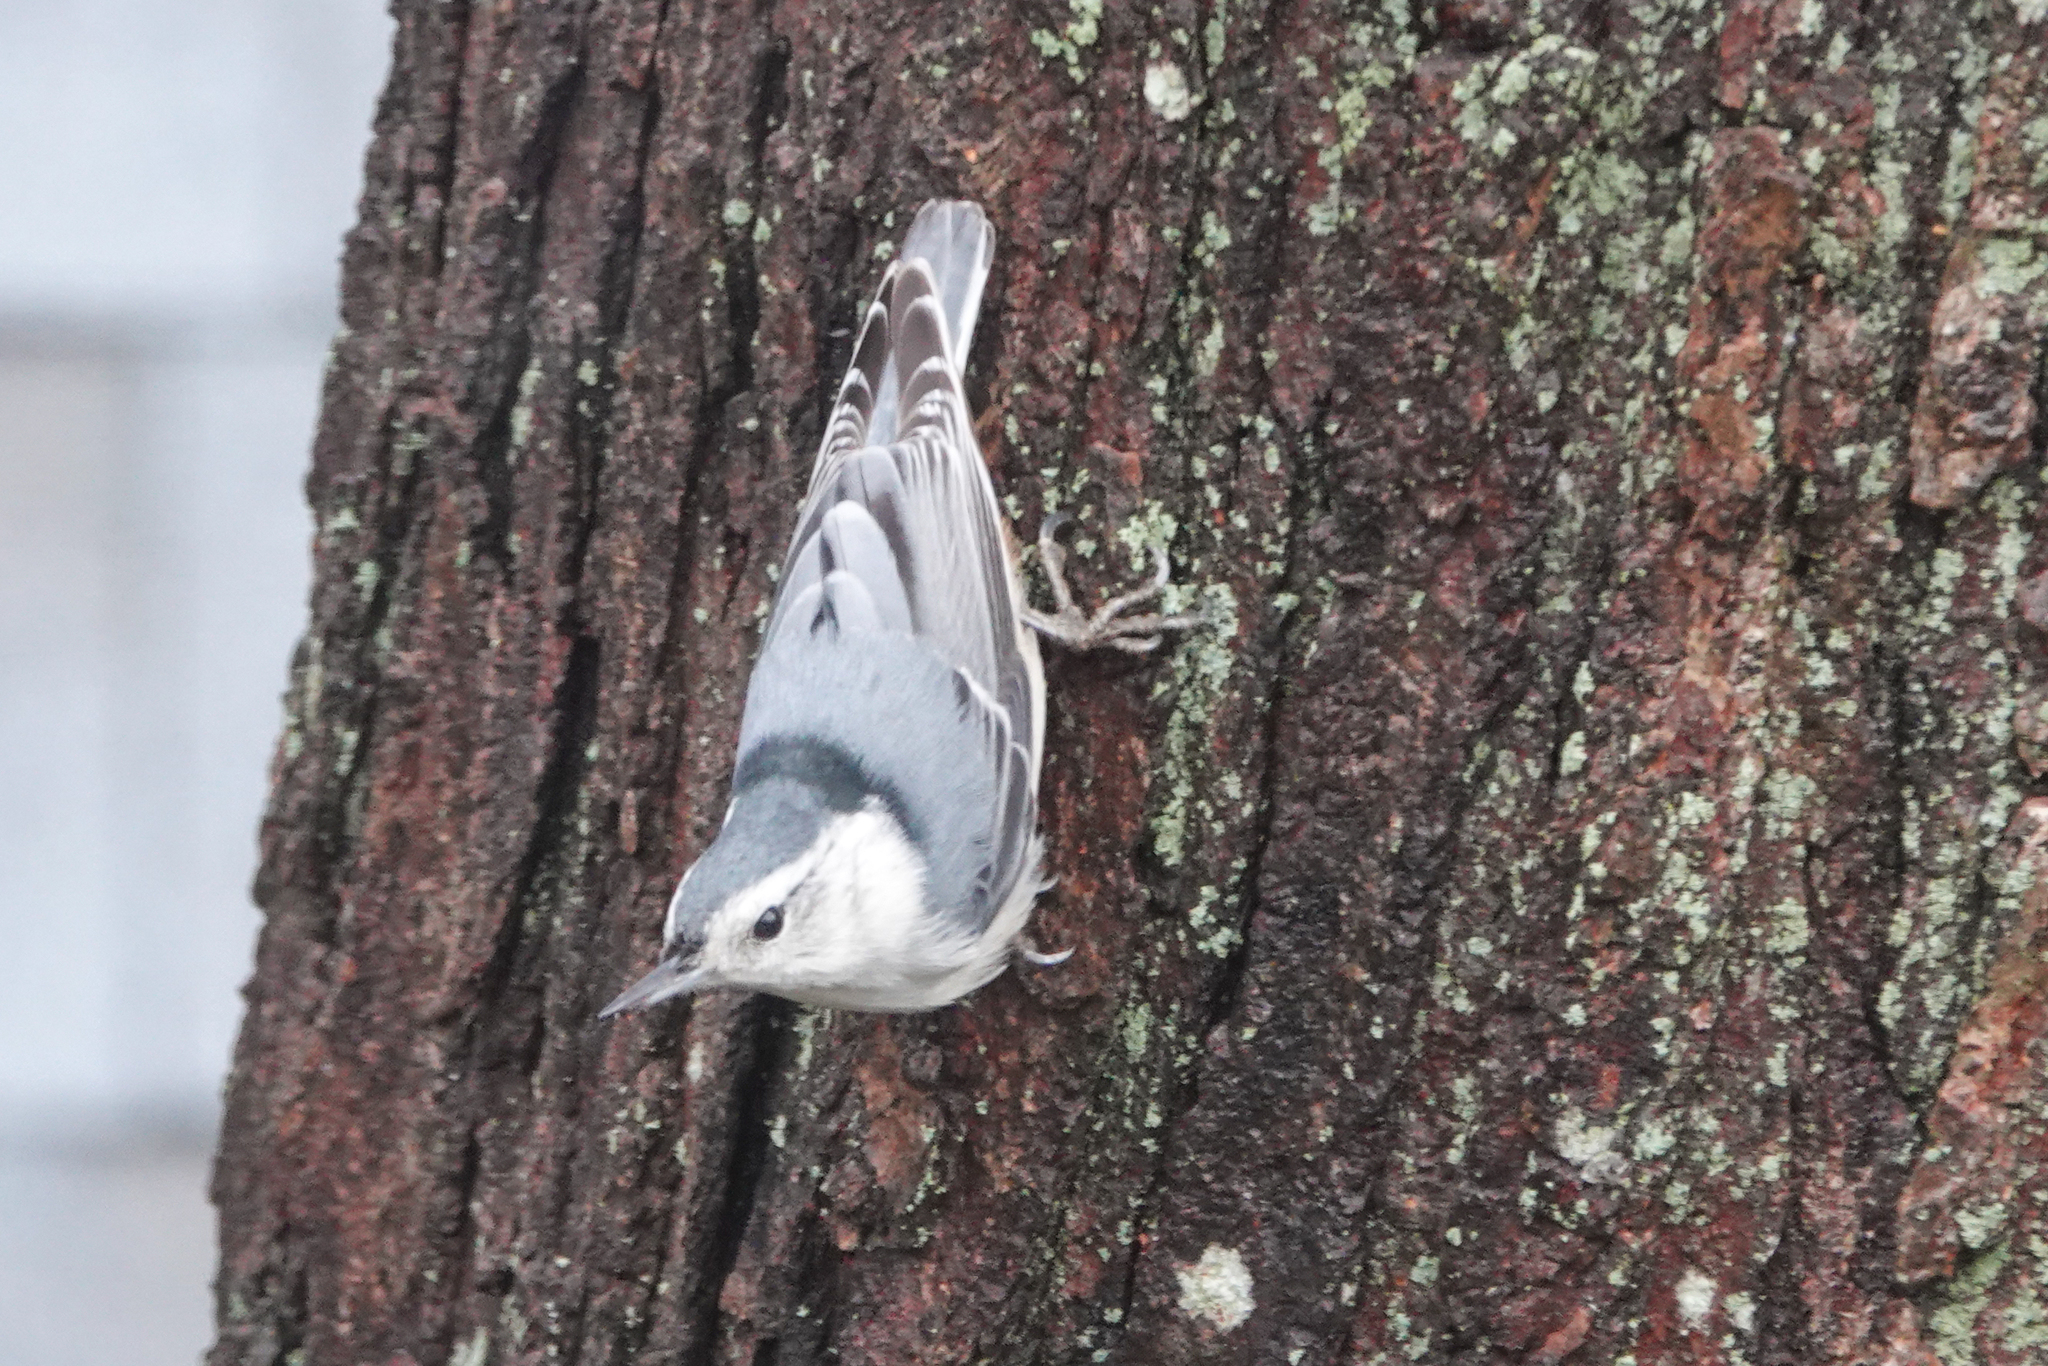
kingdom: Animalia
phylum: Chordata
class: Aves
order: Passeriformes
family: Sittidae
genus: Sitta
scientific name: Sitta carolinensis
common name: White-breasted nuthatch
